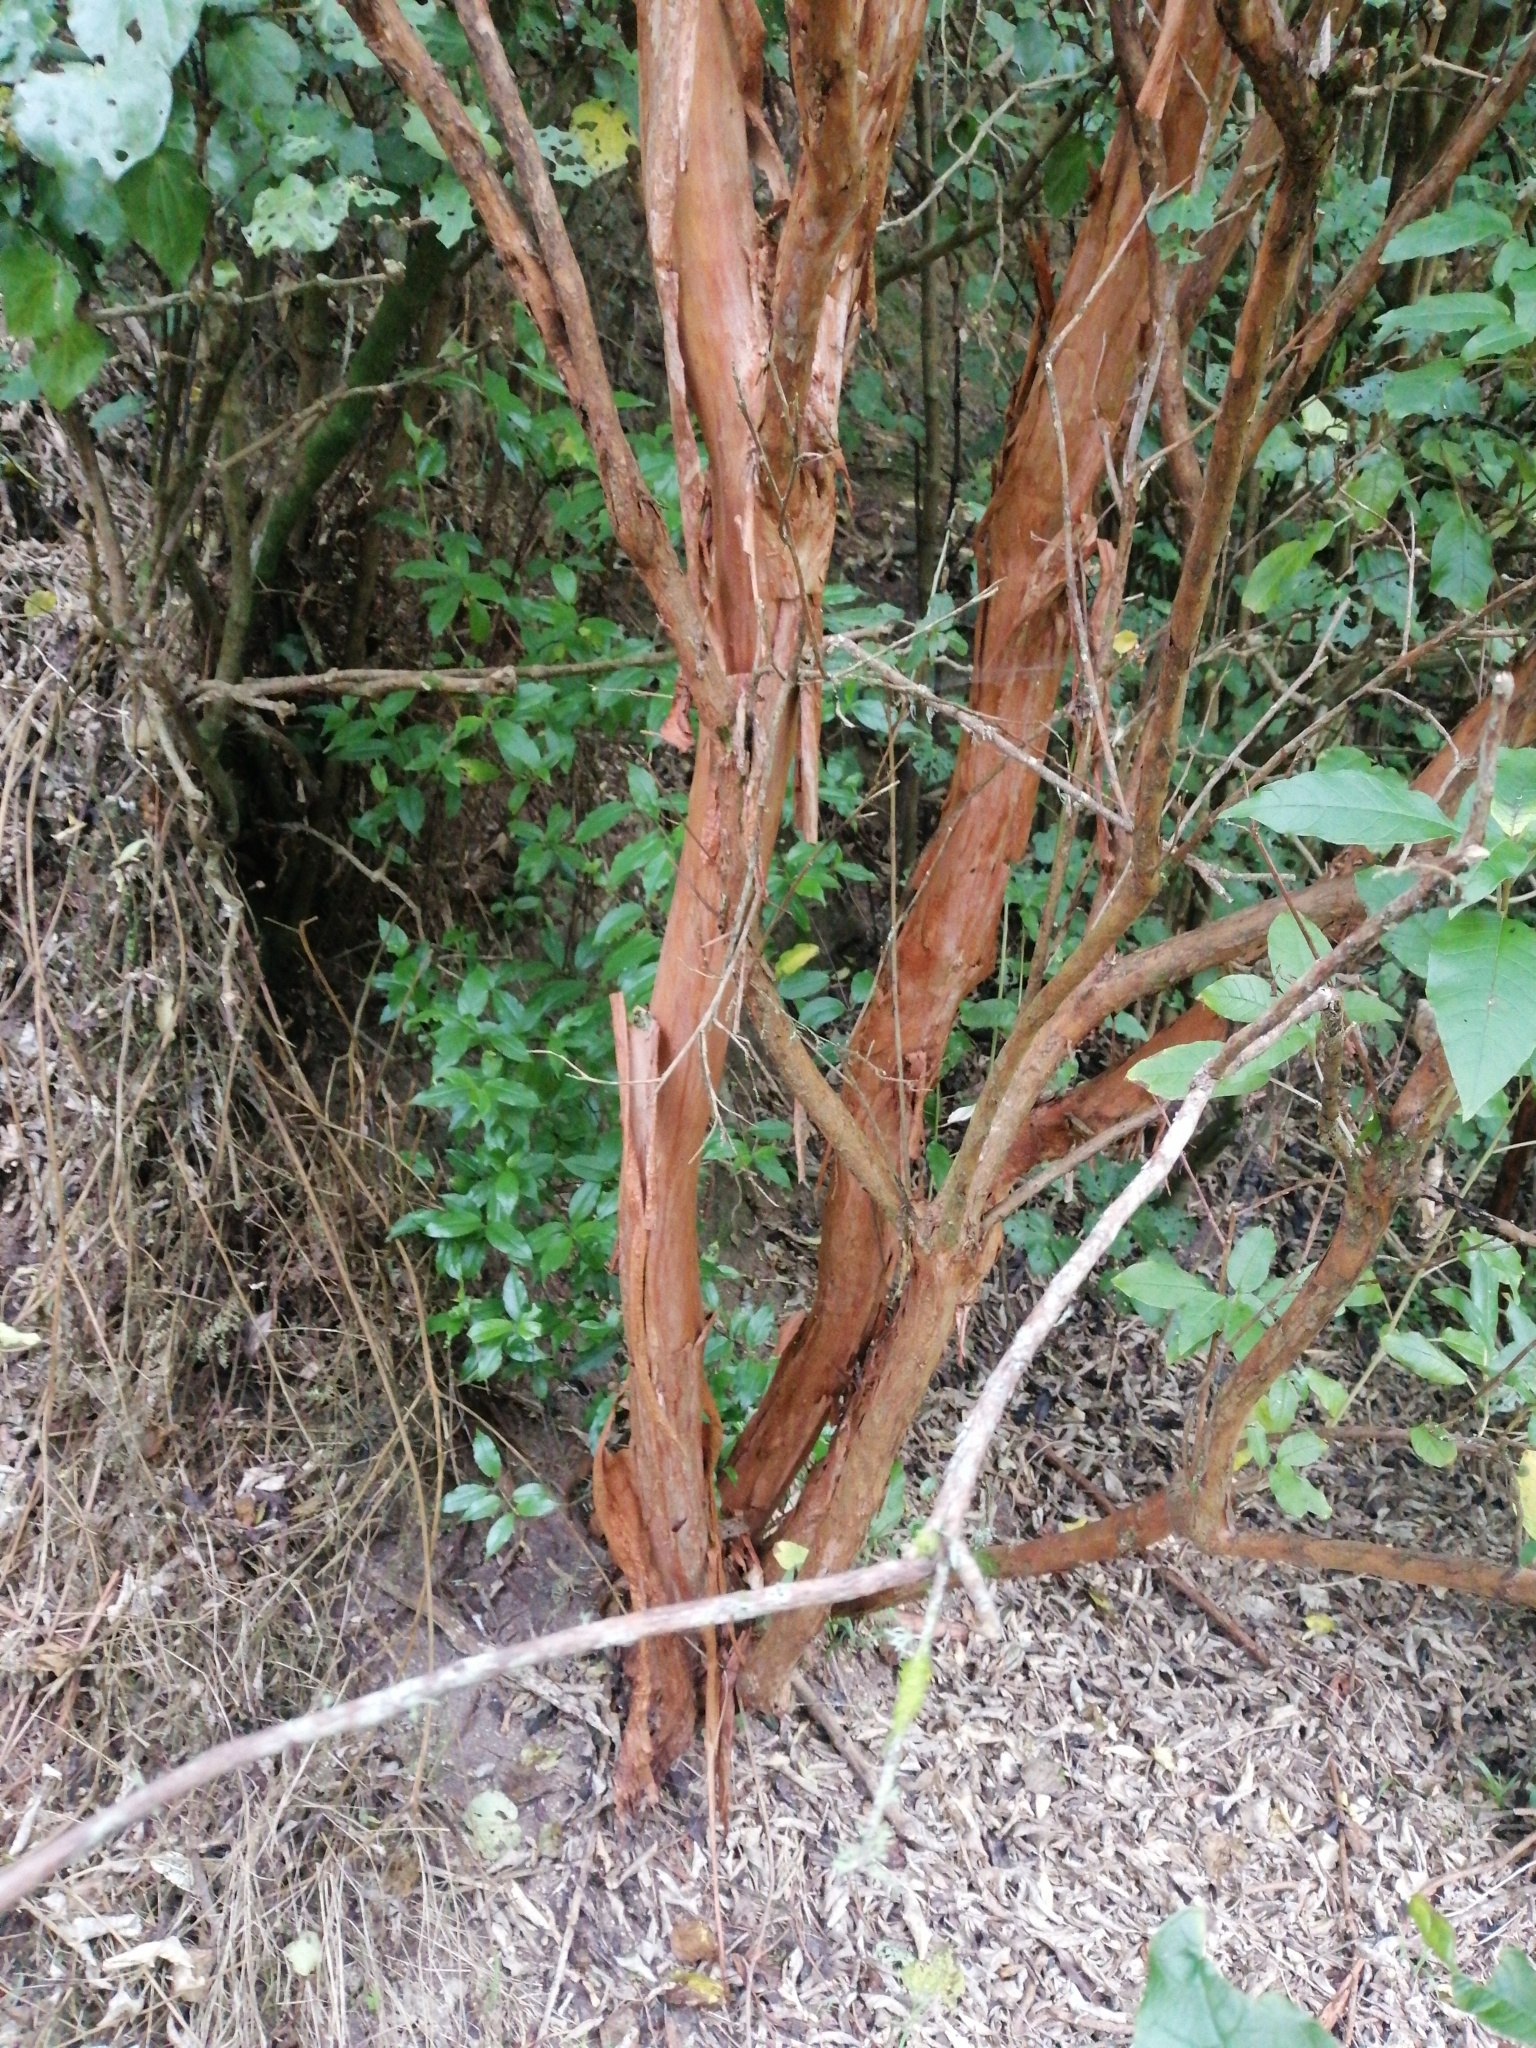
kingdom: Plantae
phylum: Tracheophyta
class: Magnoliopsida
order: Myrtales
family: Onagraceae
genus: Fuchsia
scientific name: Fuchsia excorticata
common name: Tree fuchsia
